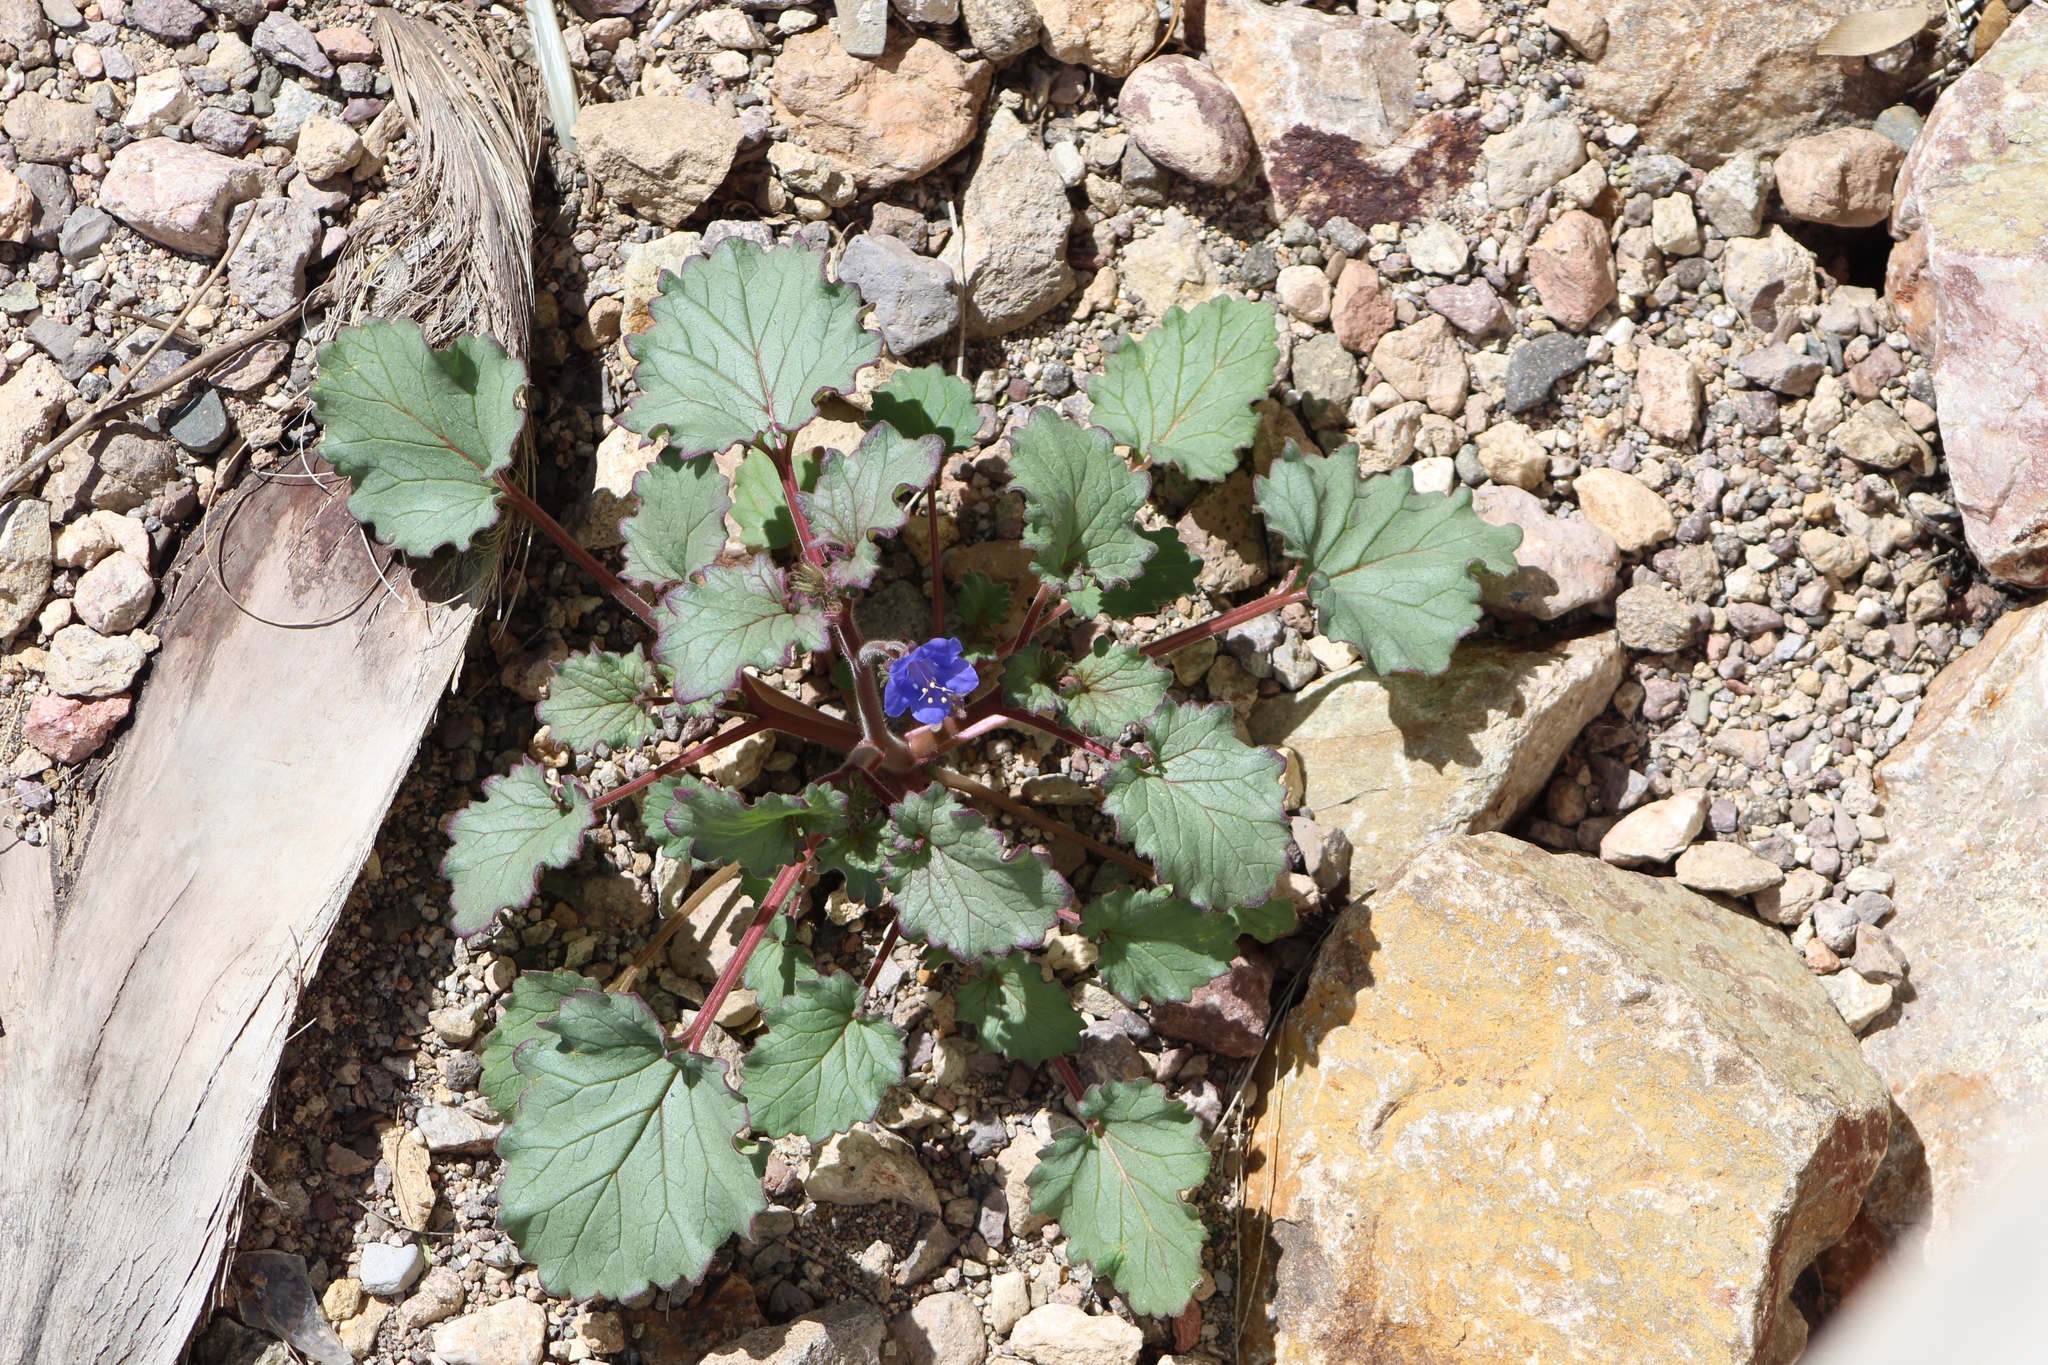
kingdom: Plantae
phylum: Tracheophyta
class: Magnoliopsida
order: Boraginales
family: Hydrophyllaceae
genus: Phacelia
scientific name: Phacelia campanularia
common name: California bluebell
